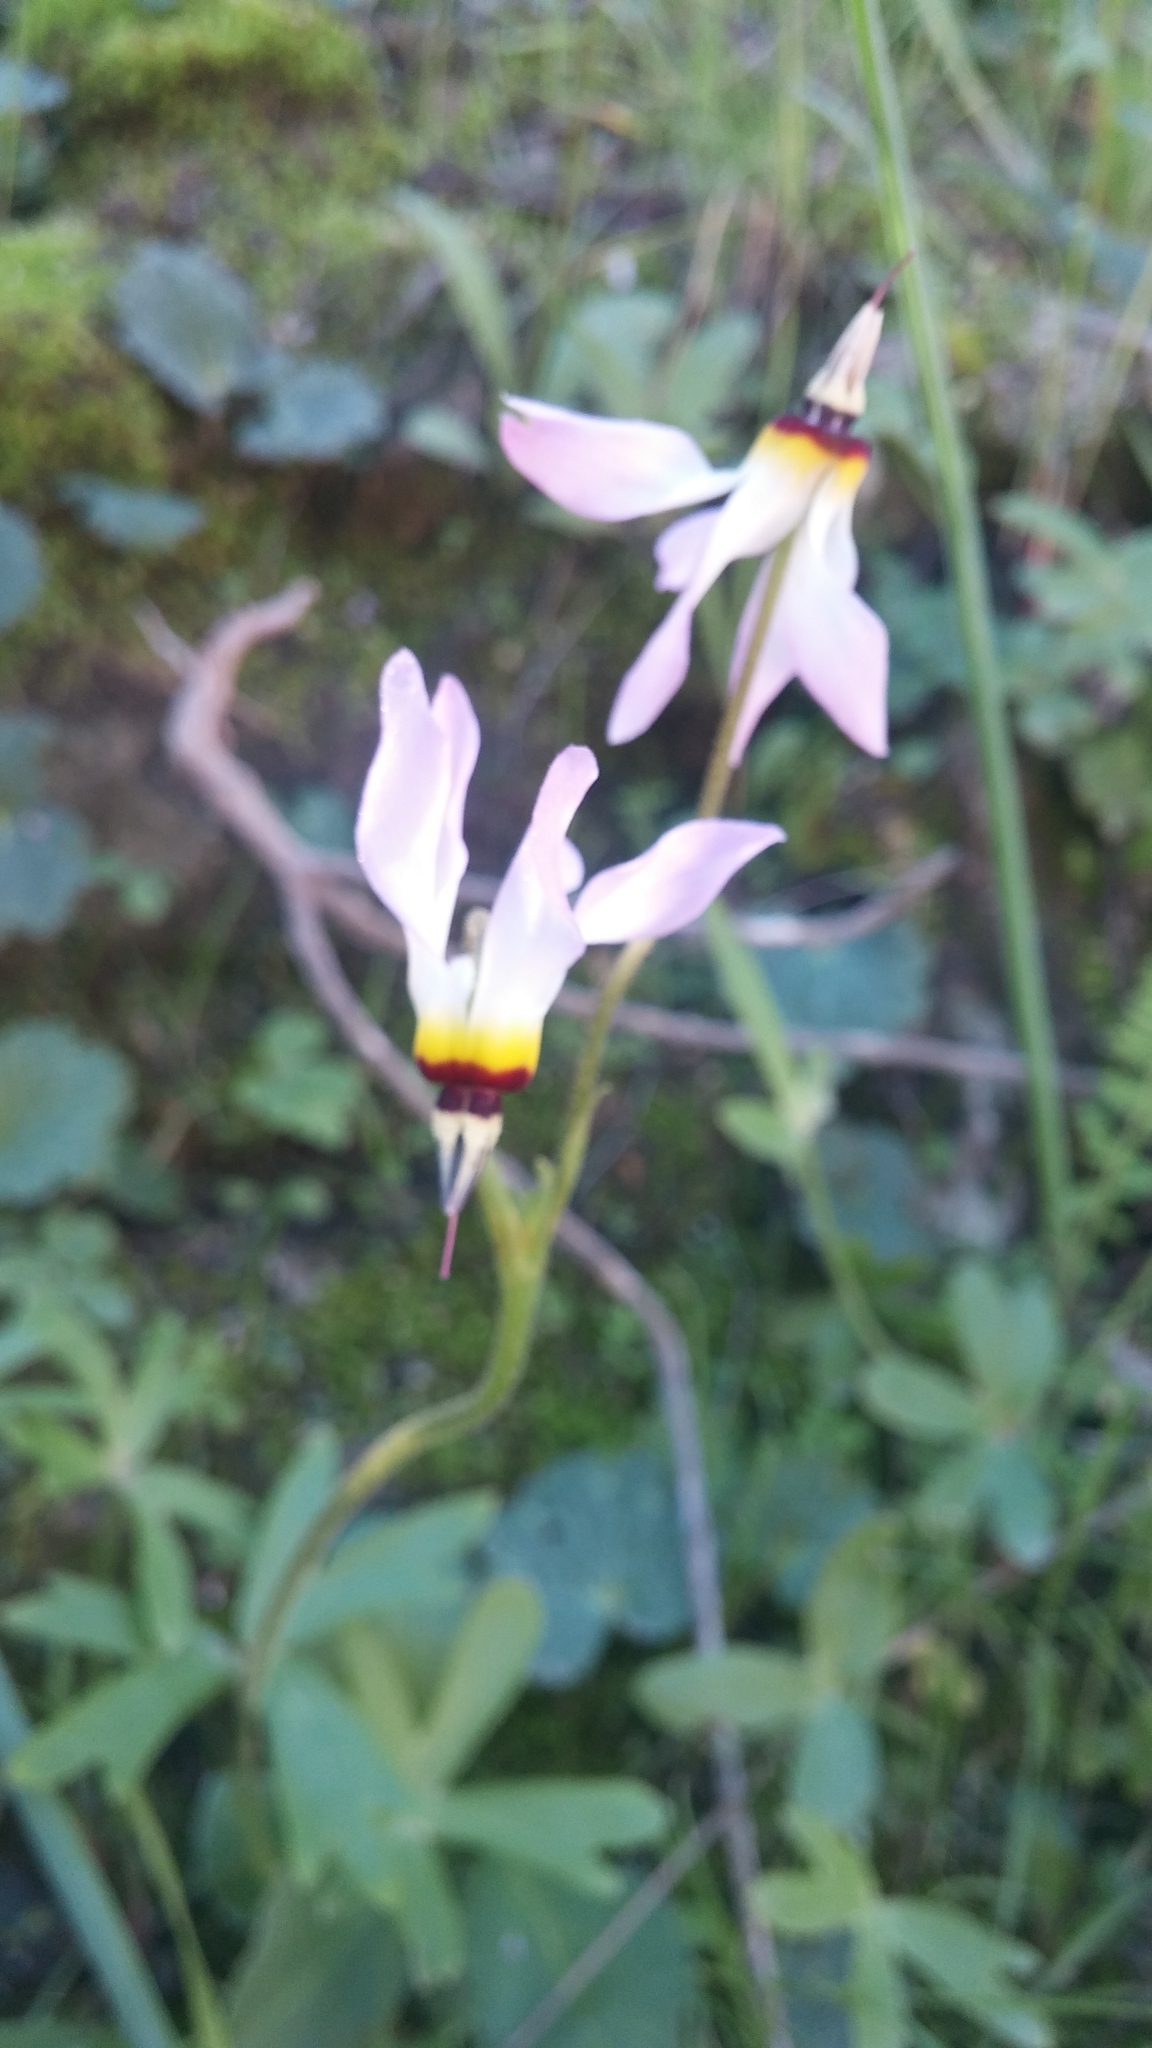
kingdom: Plantae
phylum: Tracheophyta
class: Magnoliopsida
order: Ericales
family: Primulaceae
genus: Dodecatheon
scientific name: Dodecatheon clevelandii
